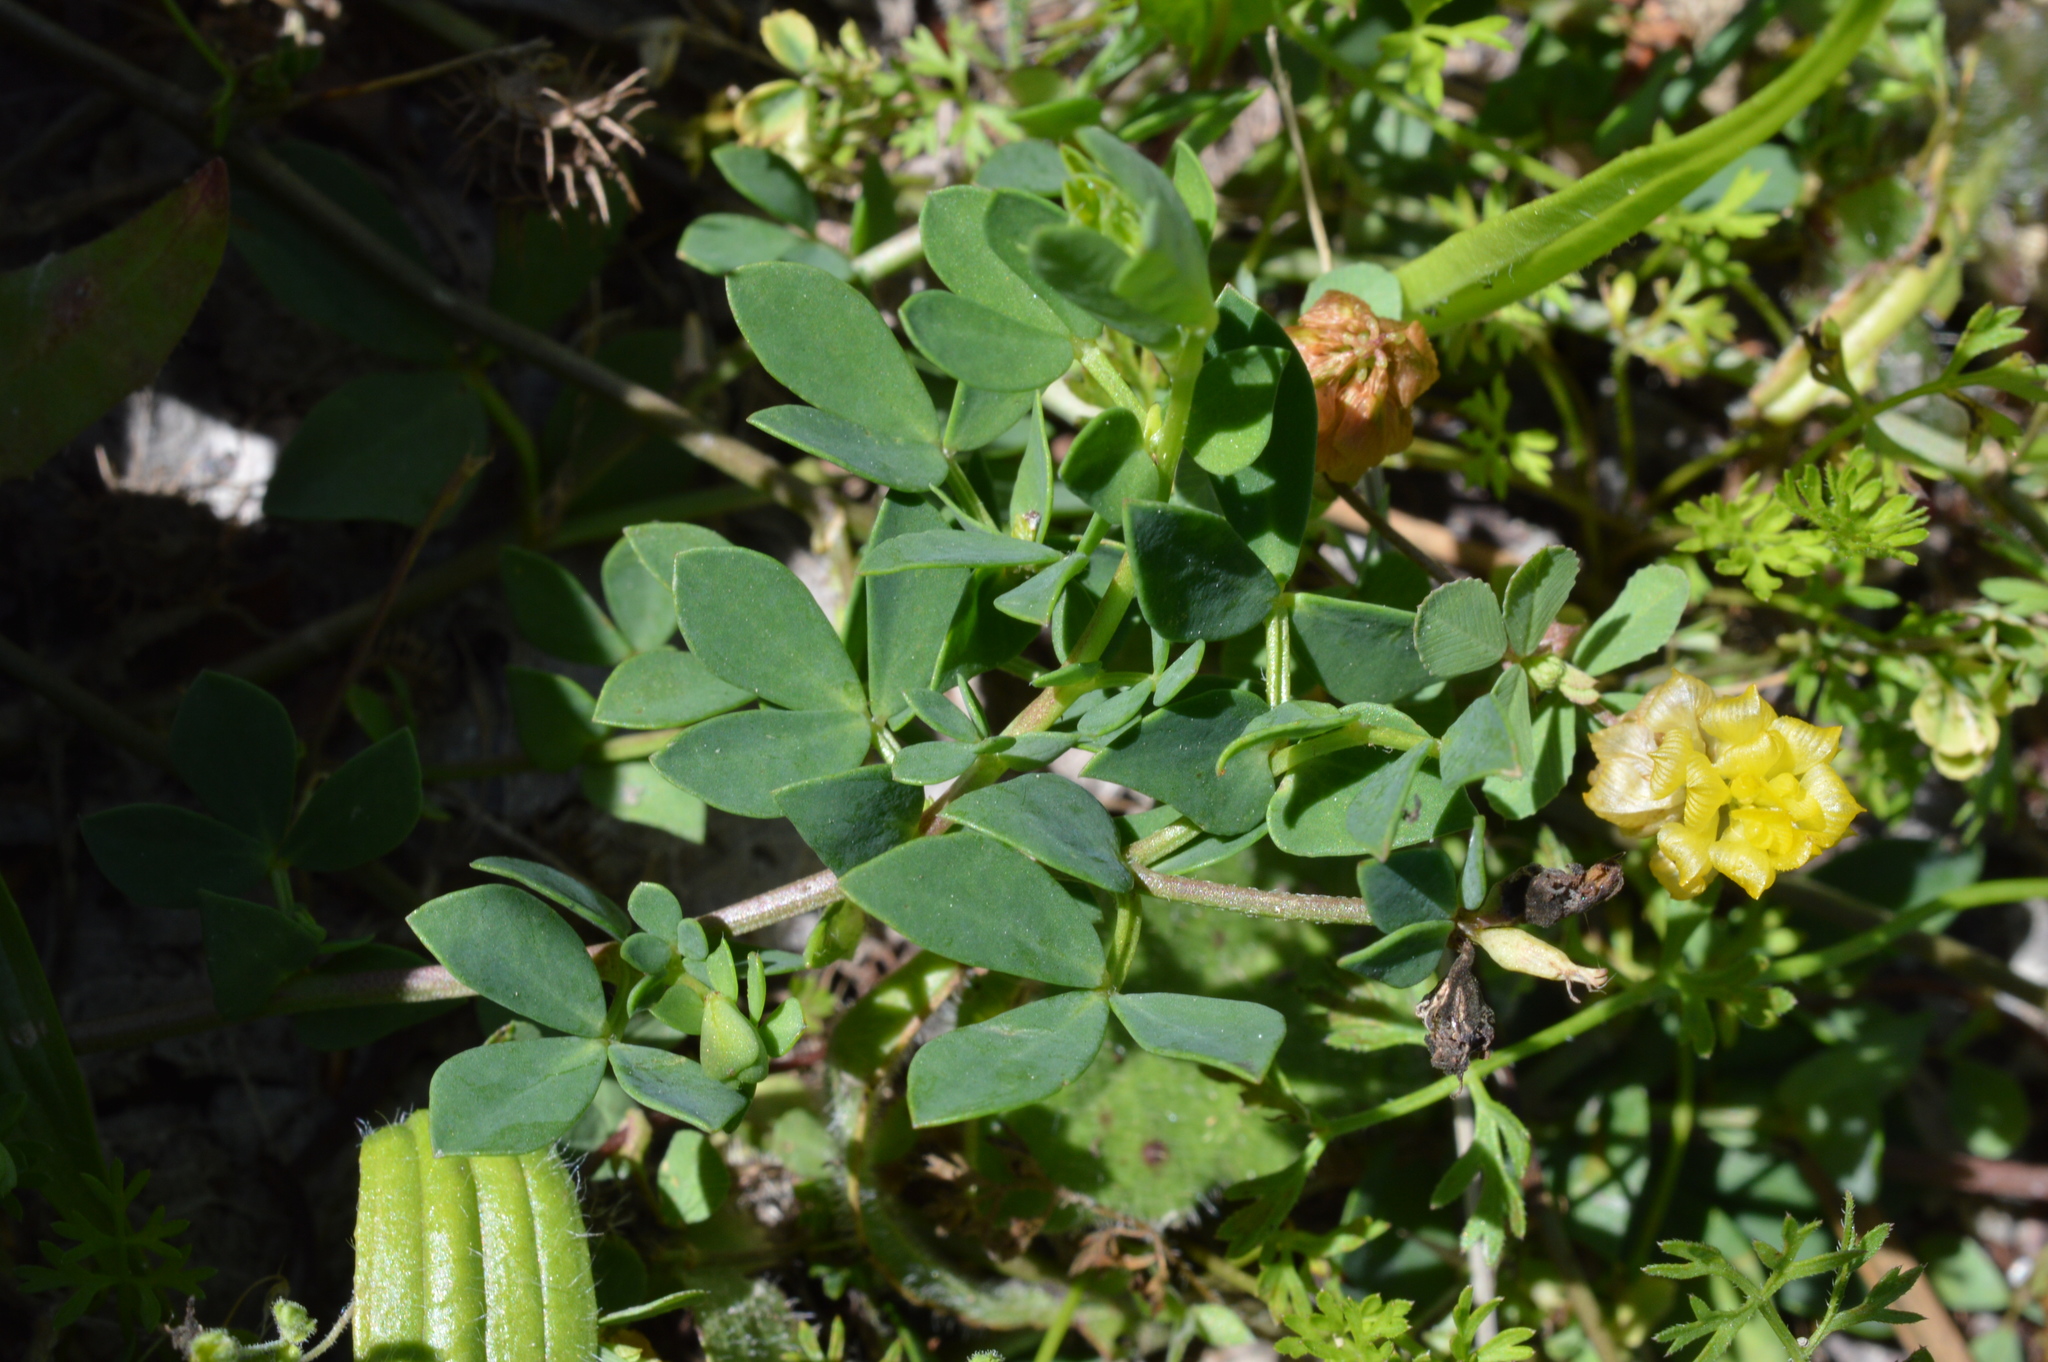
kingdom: Plantae
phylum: Tracheophyta
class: Magnoliopsida
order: Fabales
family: Fabaceae
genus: Lotus
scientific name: Lotus corniculatus
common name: Common bird's-foot-trefoil
